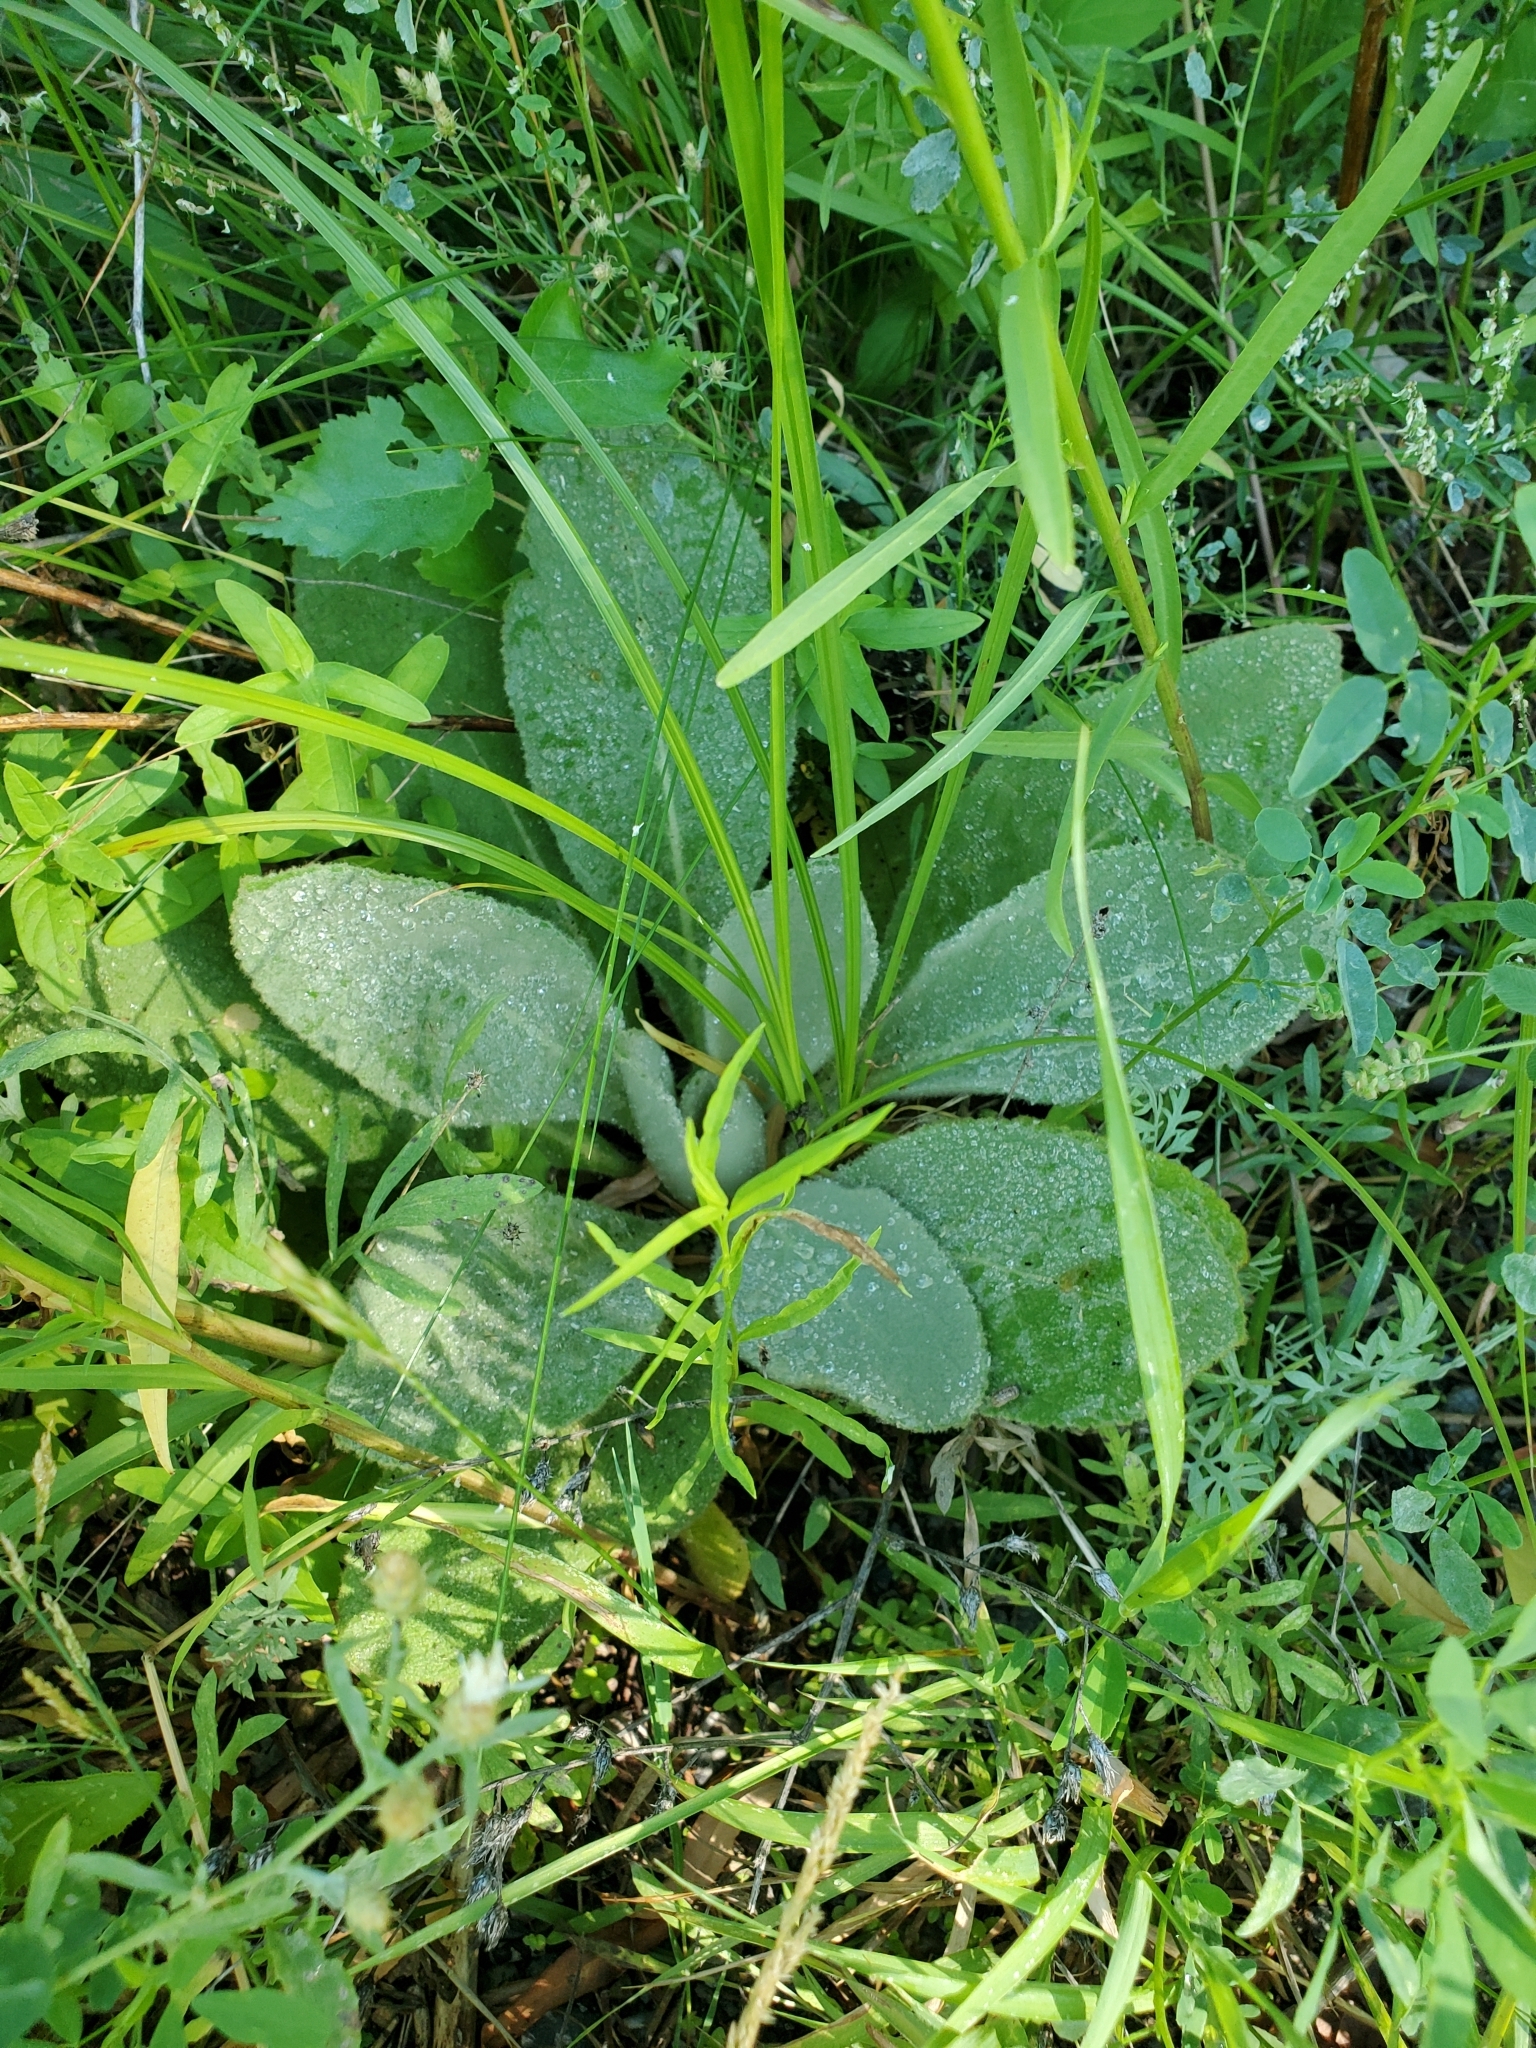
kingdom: Plantae
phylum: Tracheophyta
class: Magnoliopsida
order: Lamiales
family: Scrophulariaceae
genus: Verbascum
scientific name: Verbascum thapsus
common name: Common mullein
